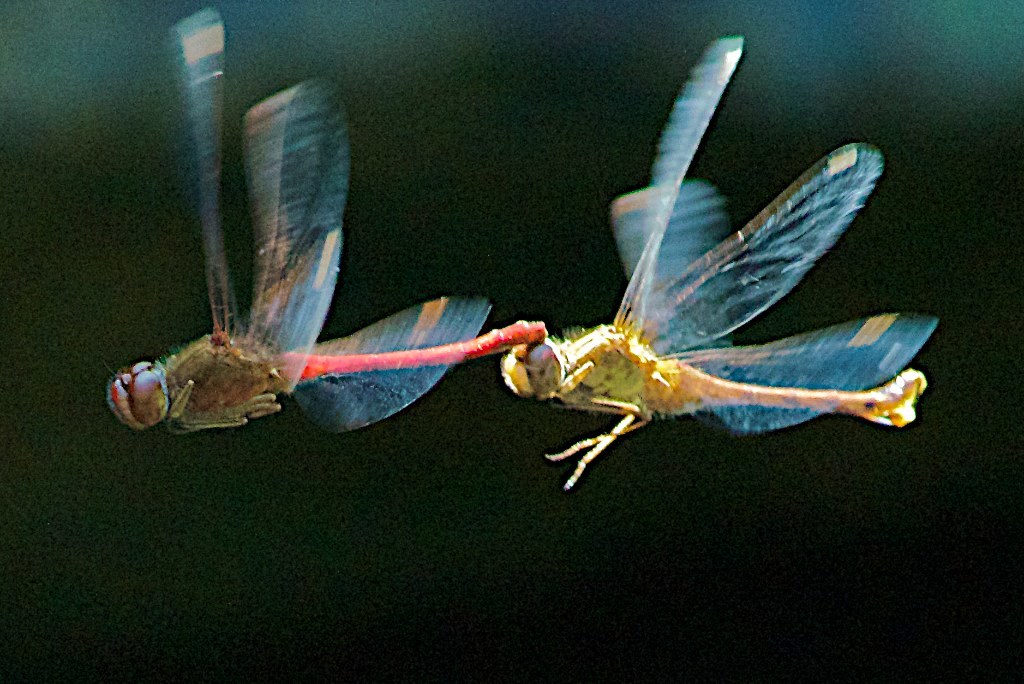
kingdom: Animalia
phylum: Arthropoda
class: Insecta
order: Odonata
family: Libellulidae
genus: Sympetrum
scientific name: Sympetrum vicinum
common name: Autumn meadowhawk
